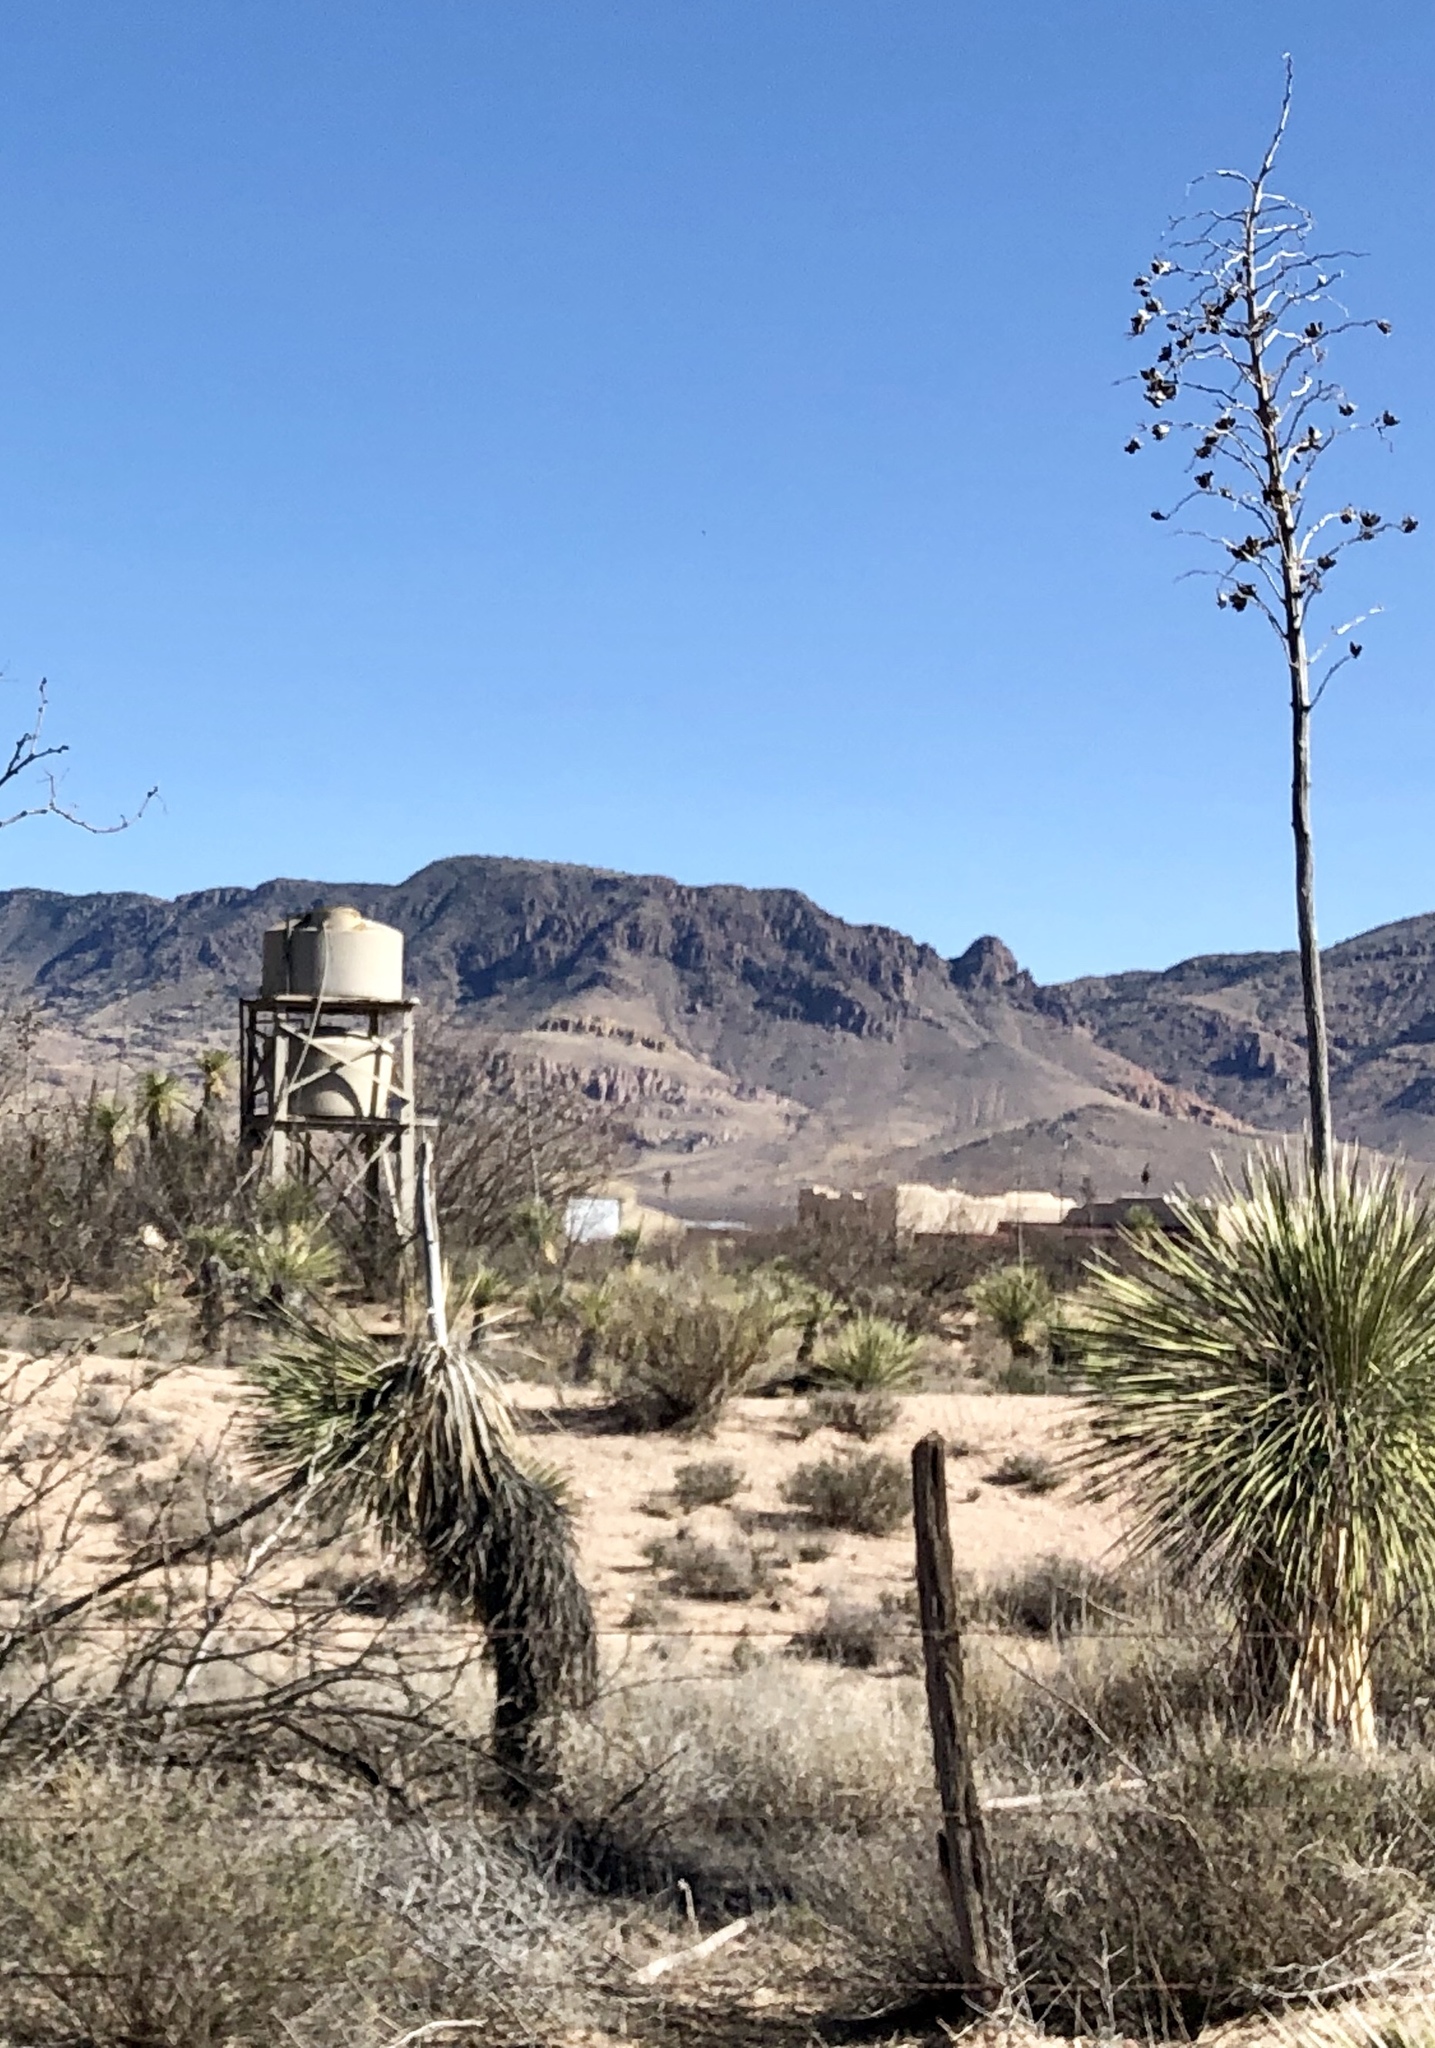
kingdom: Plantae
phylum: Tracheophyta
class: Liliopsida
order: Asparagales
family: Asparagaceae
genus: Yucca
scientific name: Yucca elata
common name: Palmella
